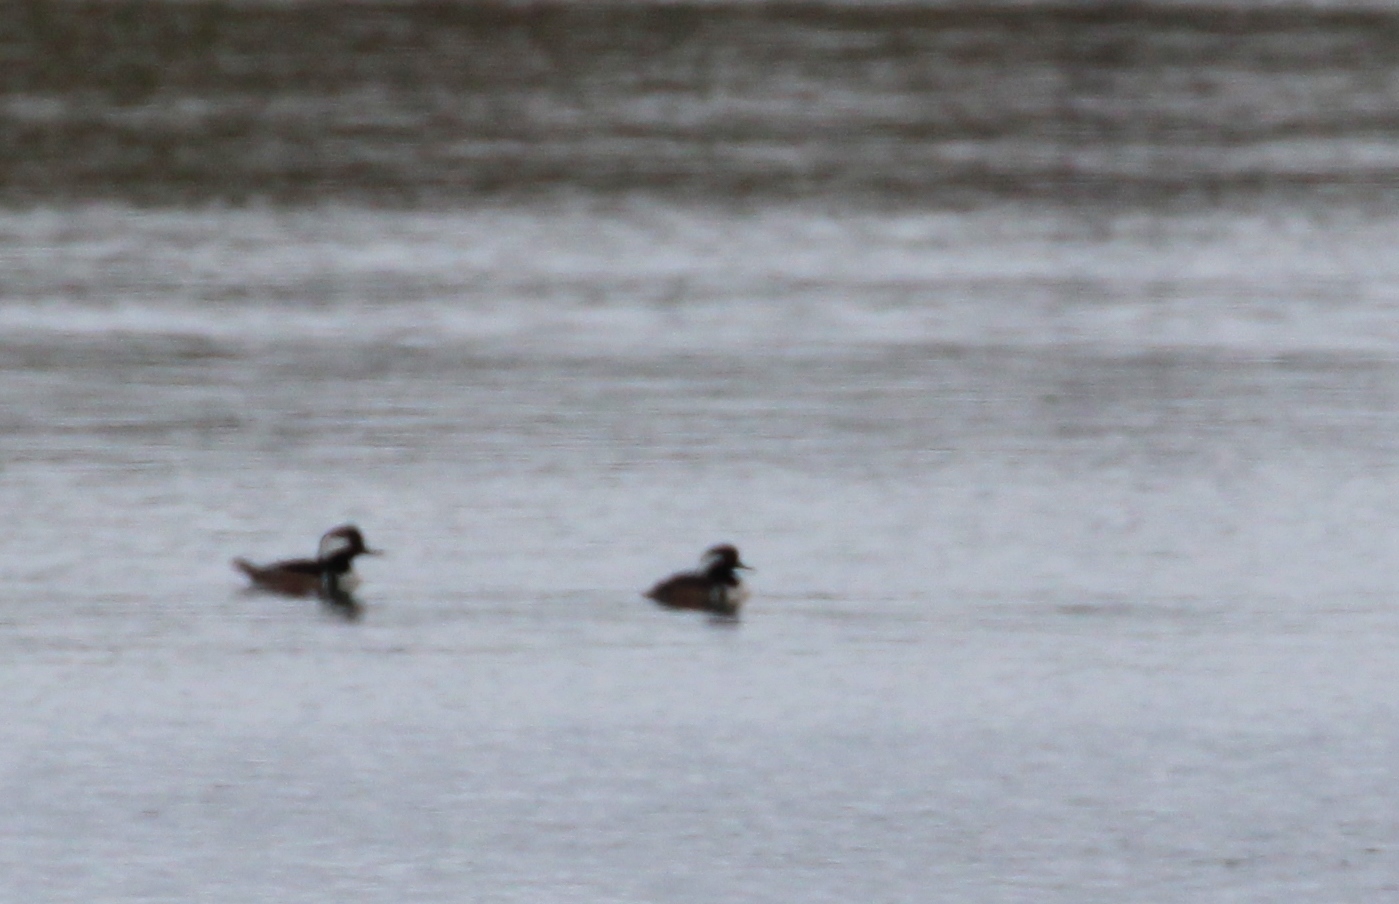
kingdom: Animalia
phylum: Chordata
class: Aves
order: Anseriformes
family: Anatidae
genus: Lophodytes
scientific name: Lophodytes cucullatus
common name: Hooded merganser
